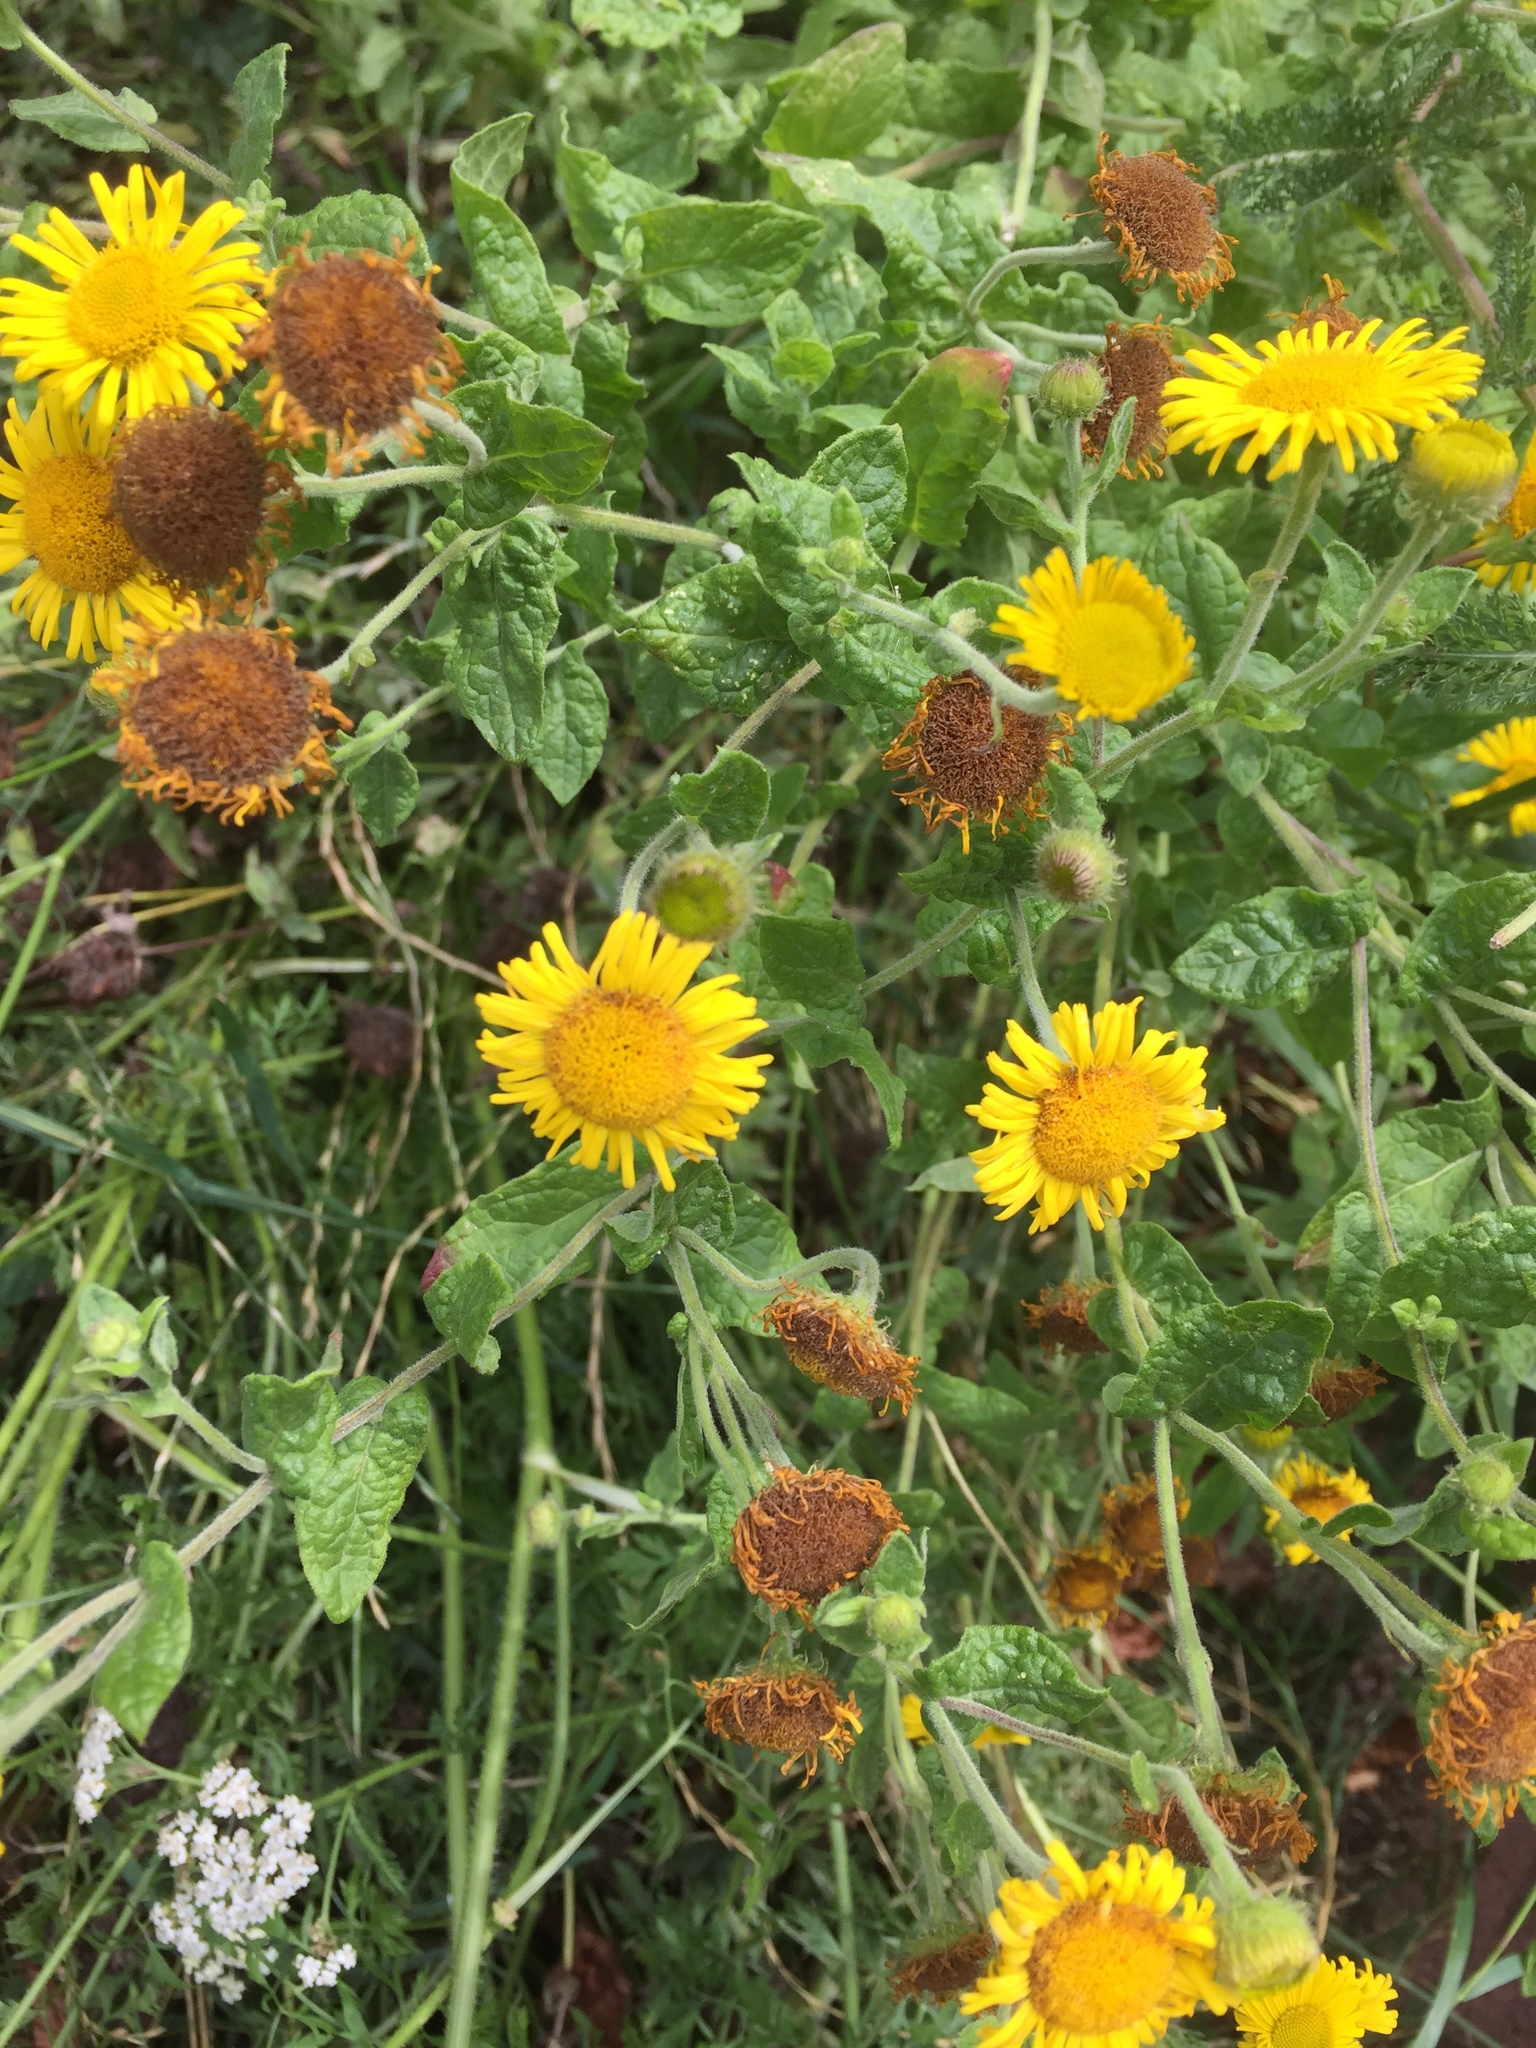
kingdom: Plantae
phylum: Tracheophyta
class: Magnoliopsida
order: Asterales
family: Asteraceae
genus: Pulicaria
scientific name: Pulicaria dysenterica
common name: Common fleabane
